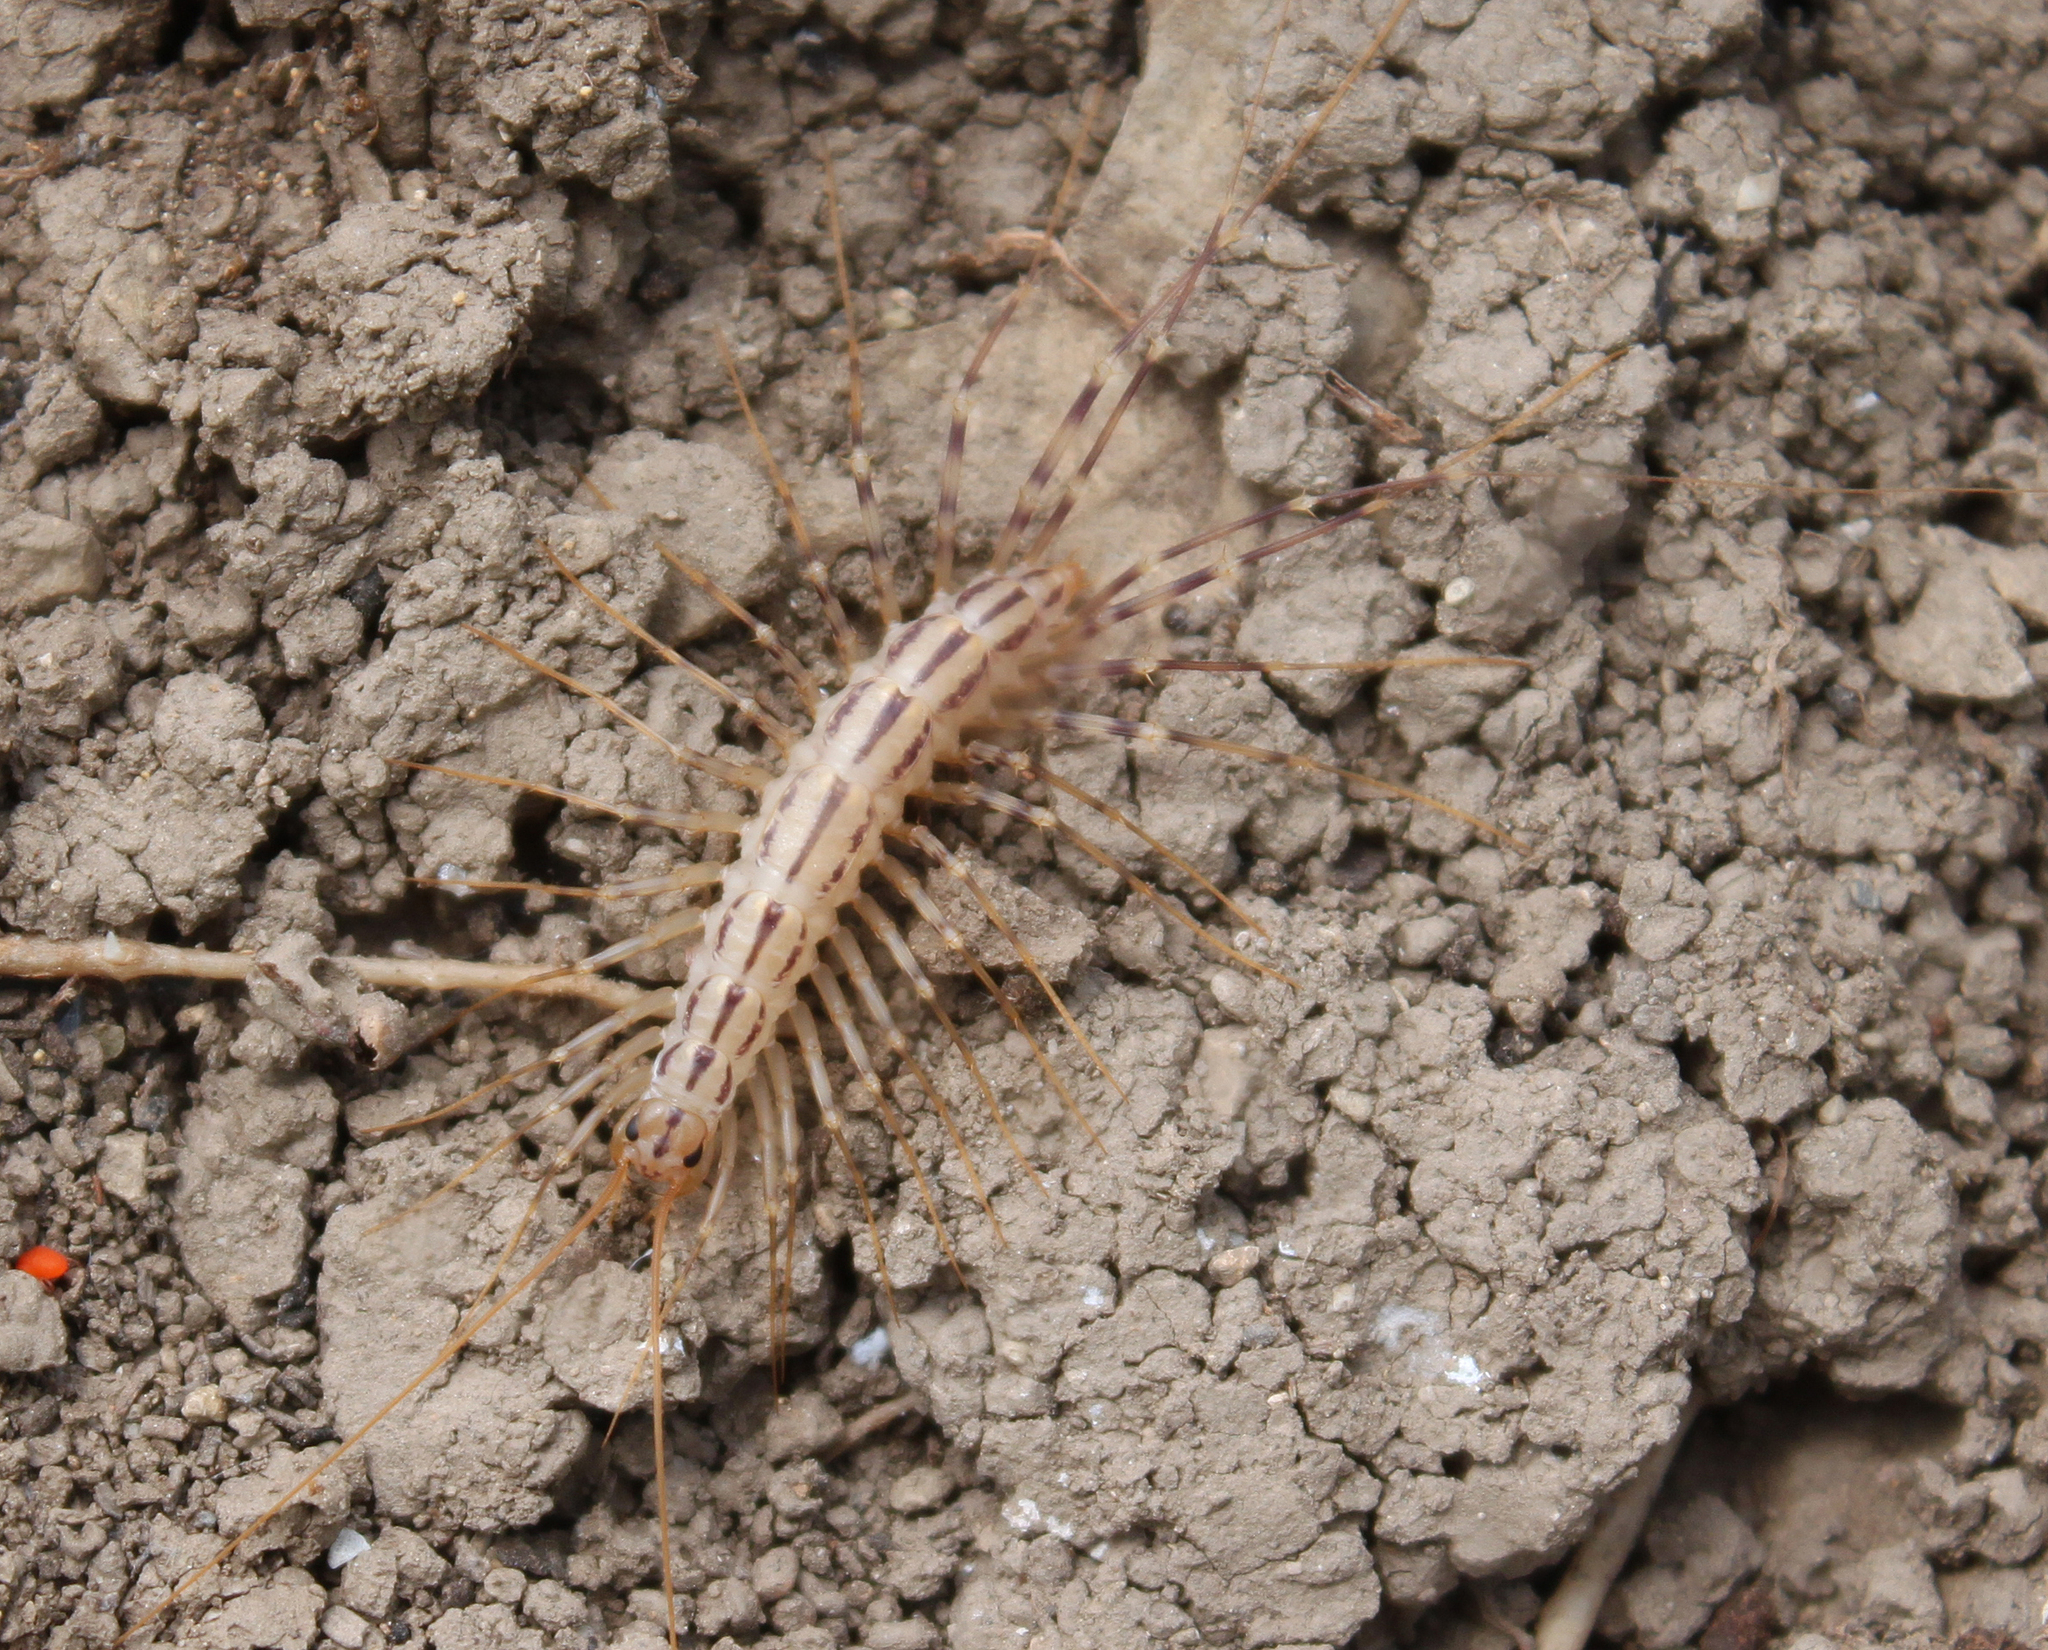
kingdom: Animalia
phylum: Arthropoda
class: Chilopoda
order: Scutigeromorpha
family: Scutigeridae
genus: Scutigera
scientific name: Scutigera coleoptrata
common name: House centipede
